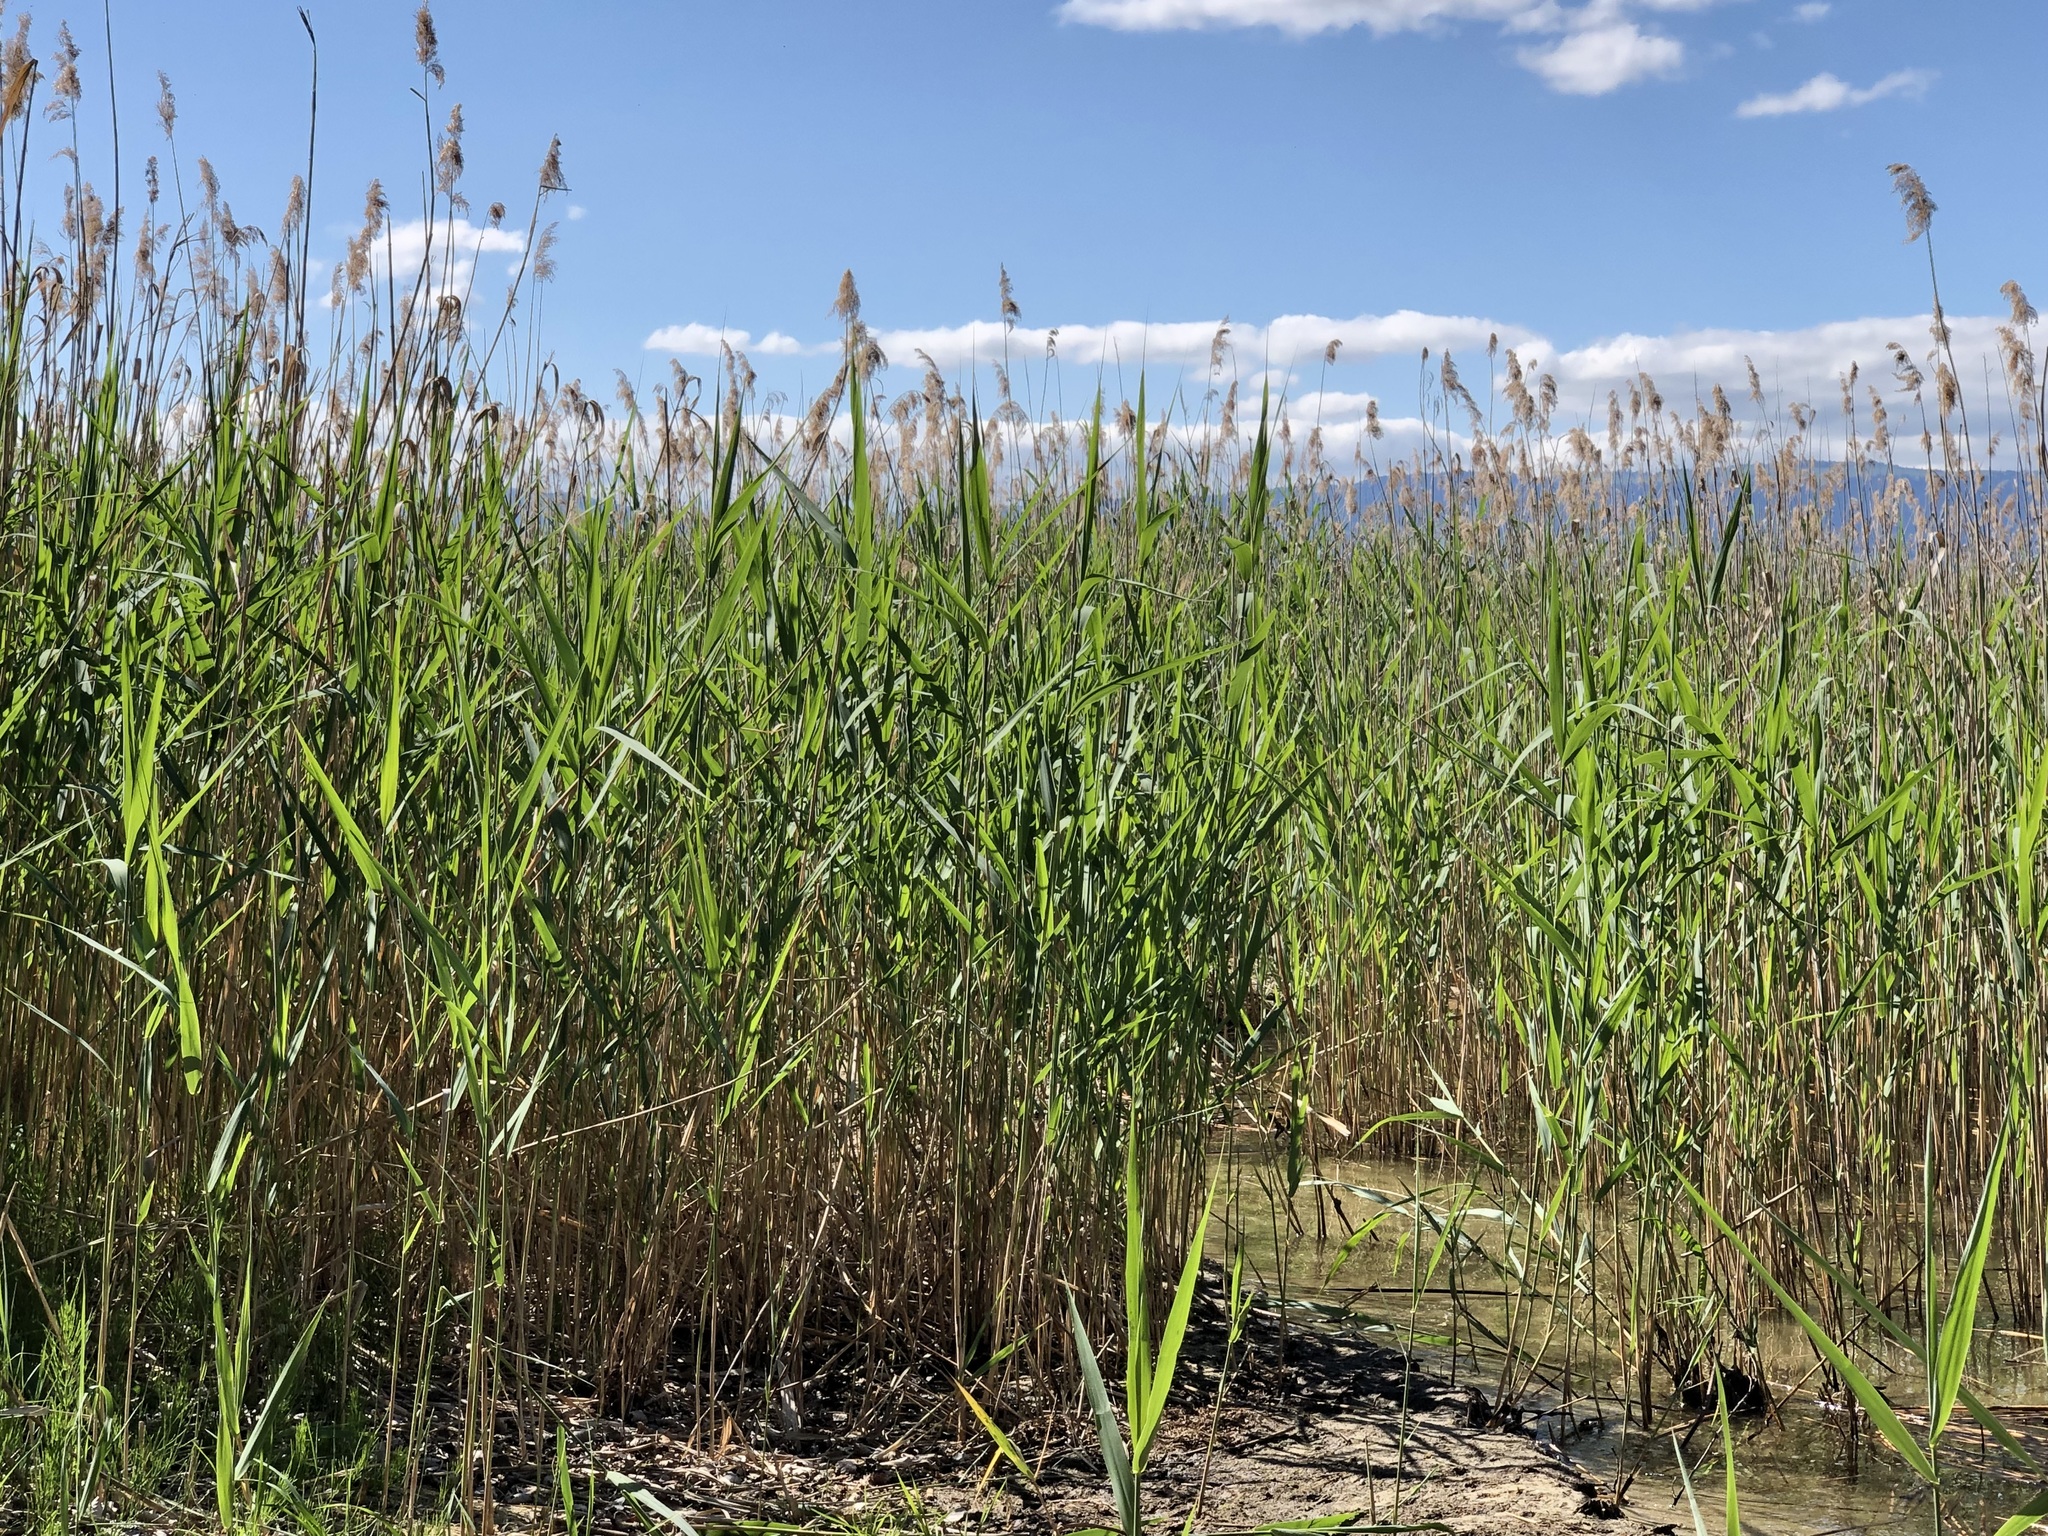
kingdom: Plantae
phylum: Tracheophyta
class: Liliopsida
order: Poales
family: Poaceae
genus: Phragmites
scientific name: Phragmites australis
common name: Common reed
